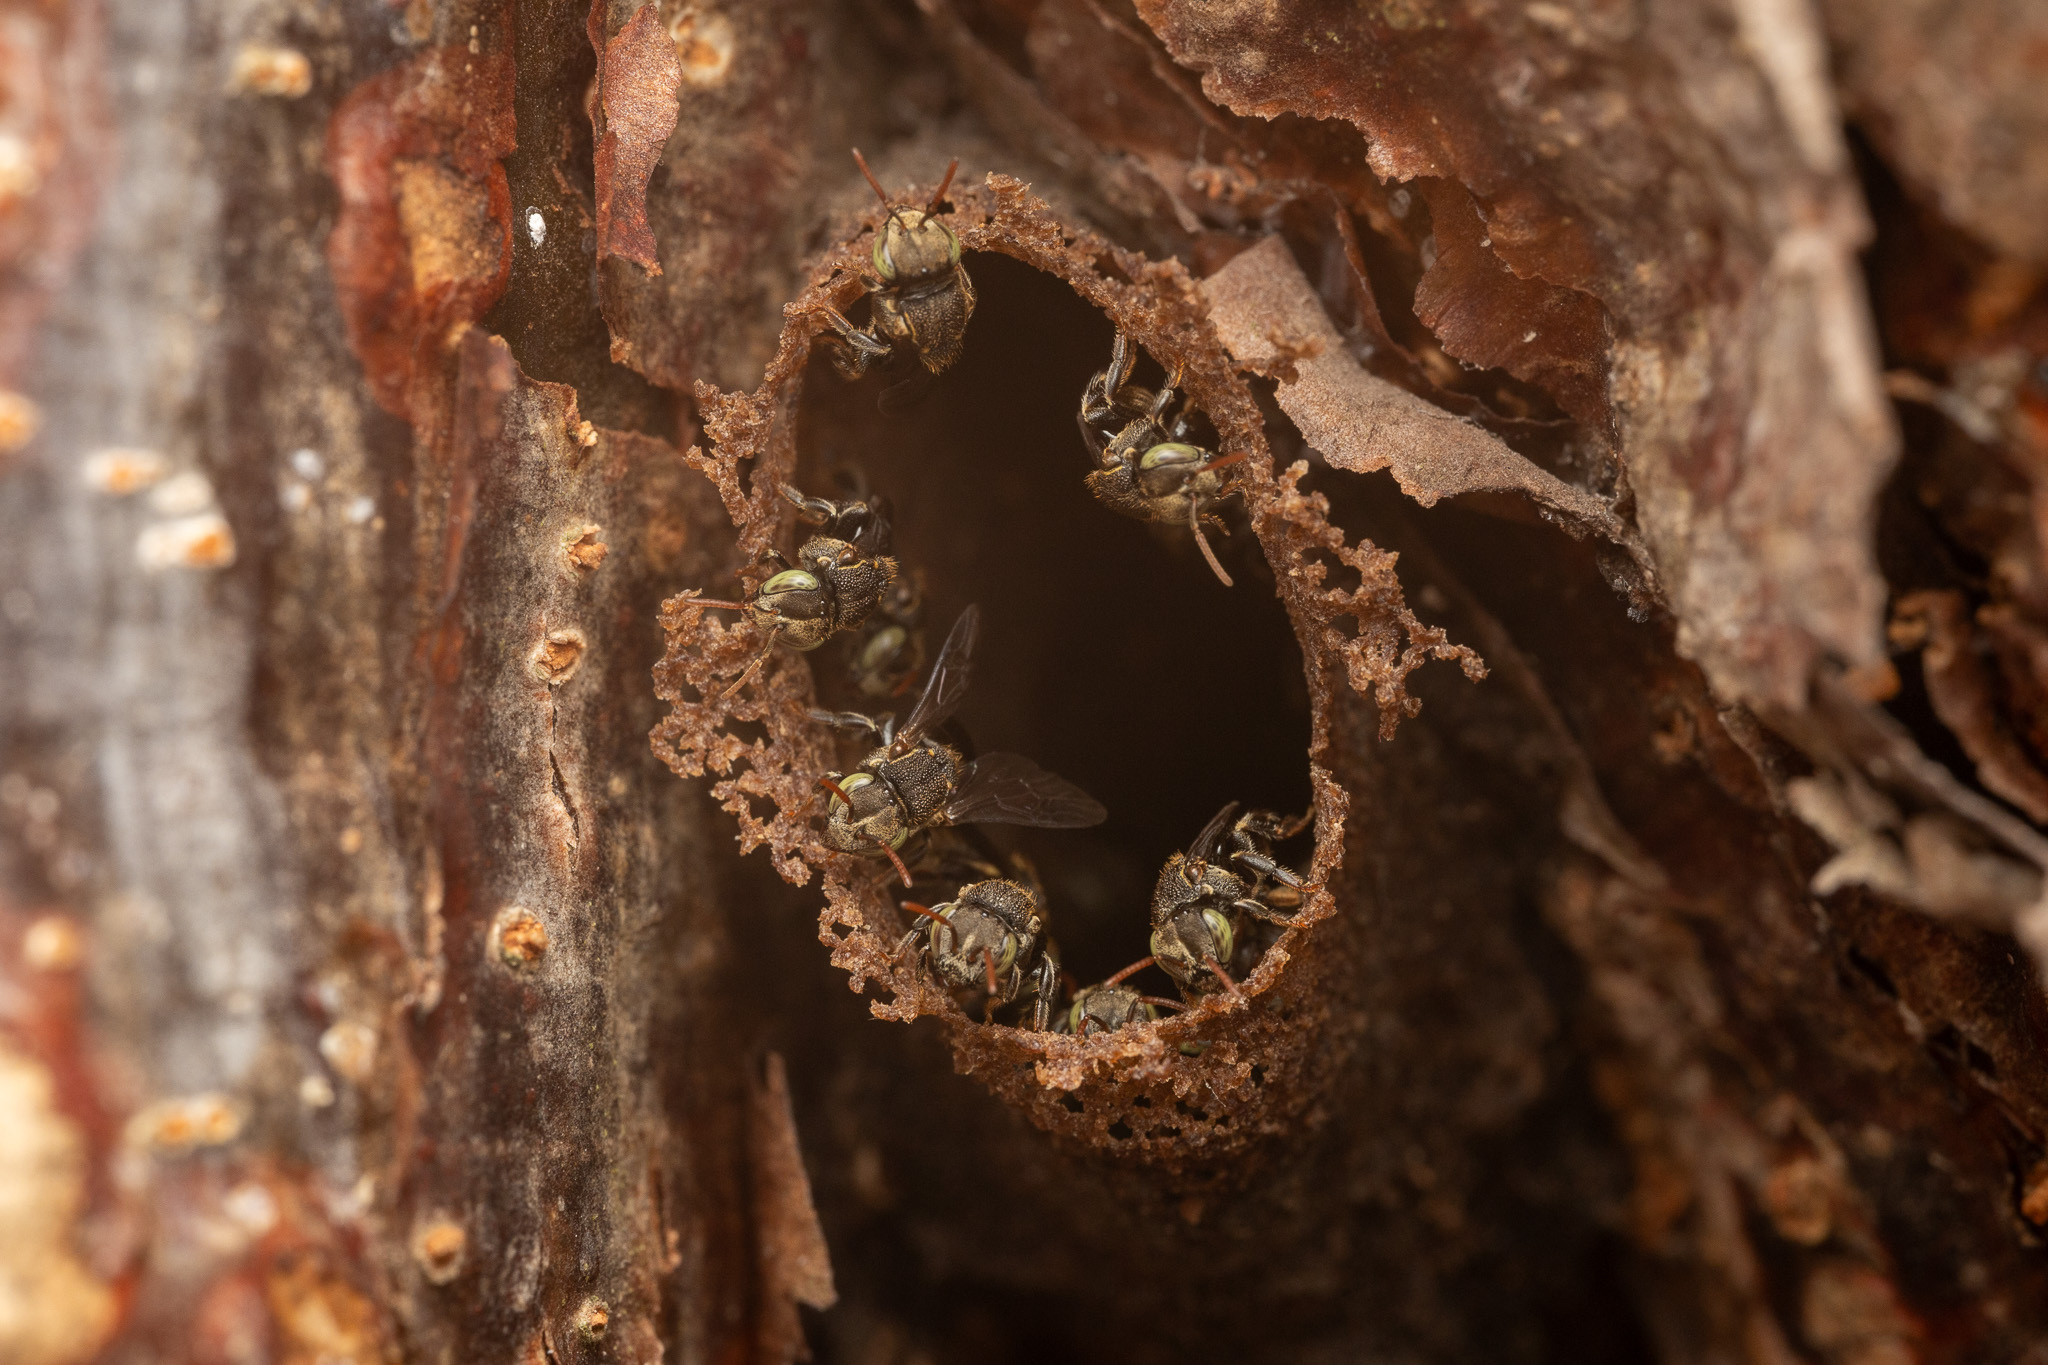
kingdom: Animalia
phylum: Arthropoda
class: Insecta
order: Hymenoptera
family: Apidae
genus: Nannotrigona
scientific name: Nannotrigona perilampoides
